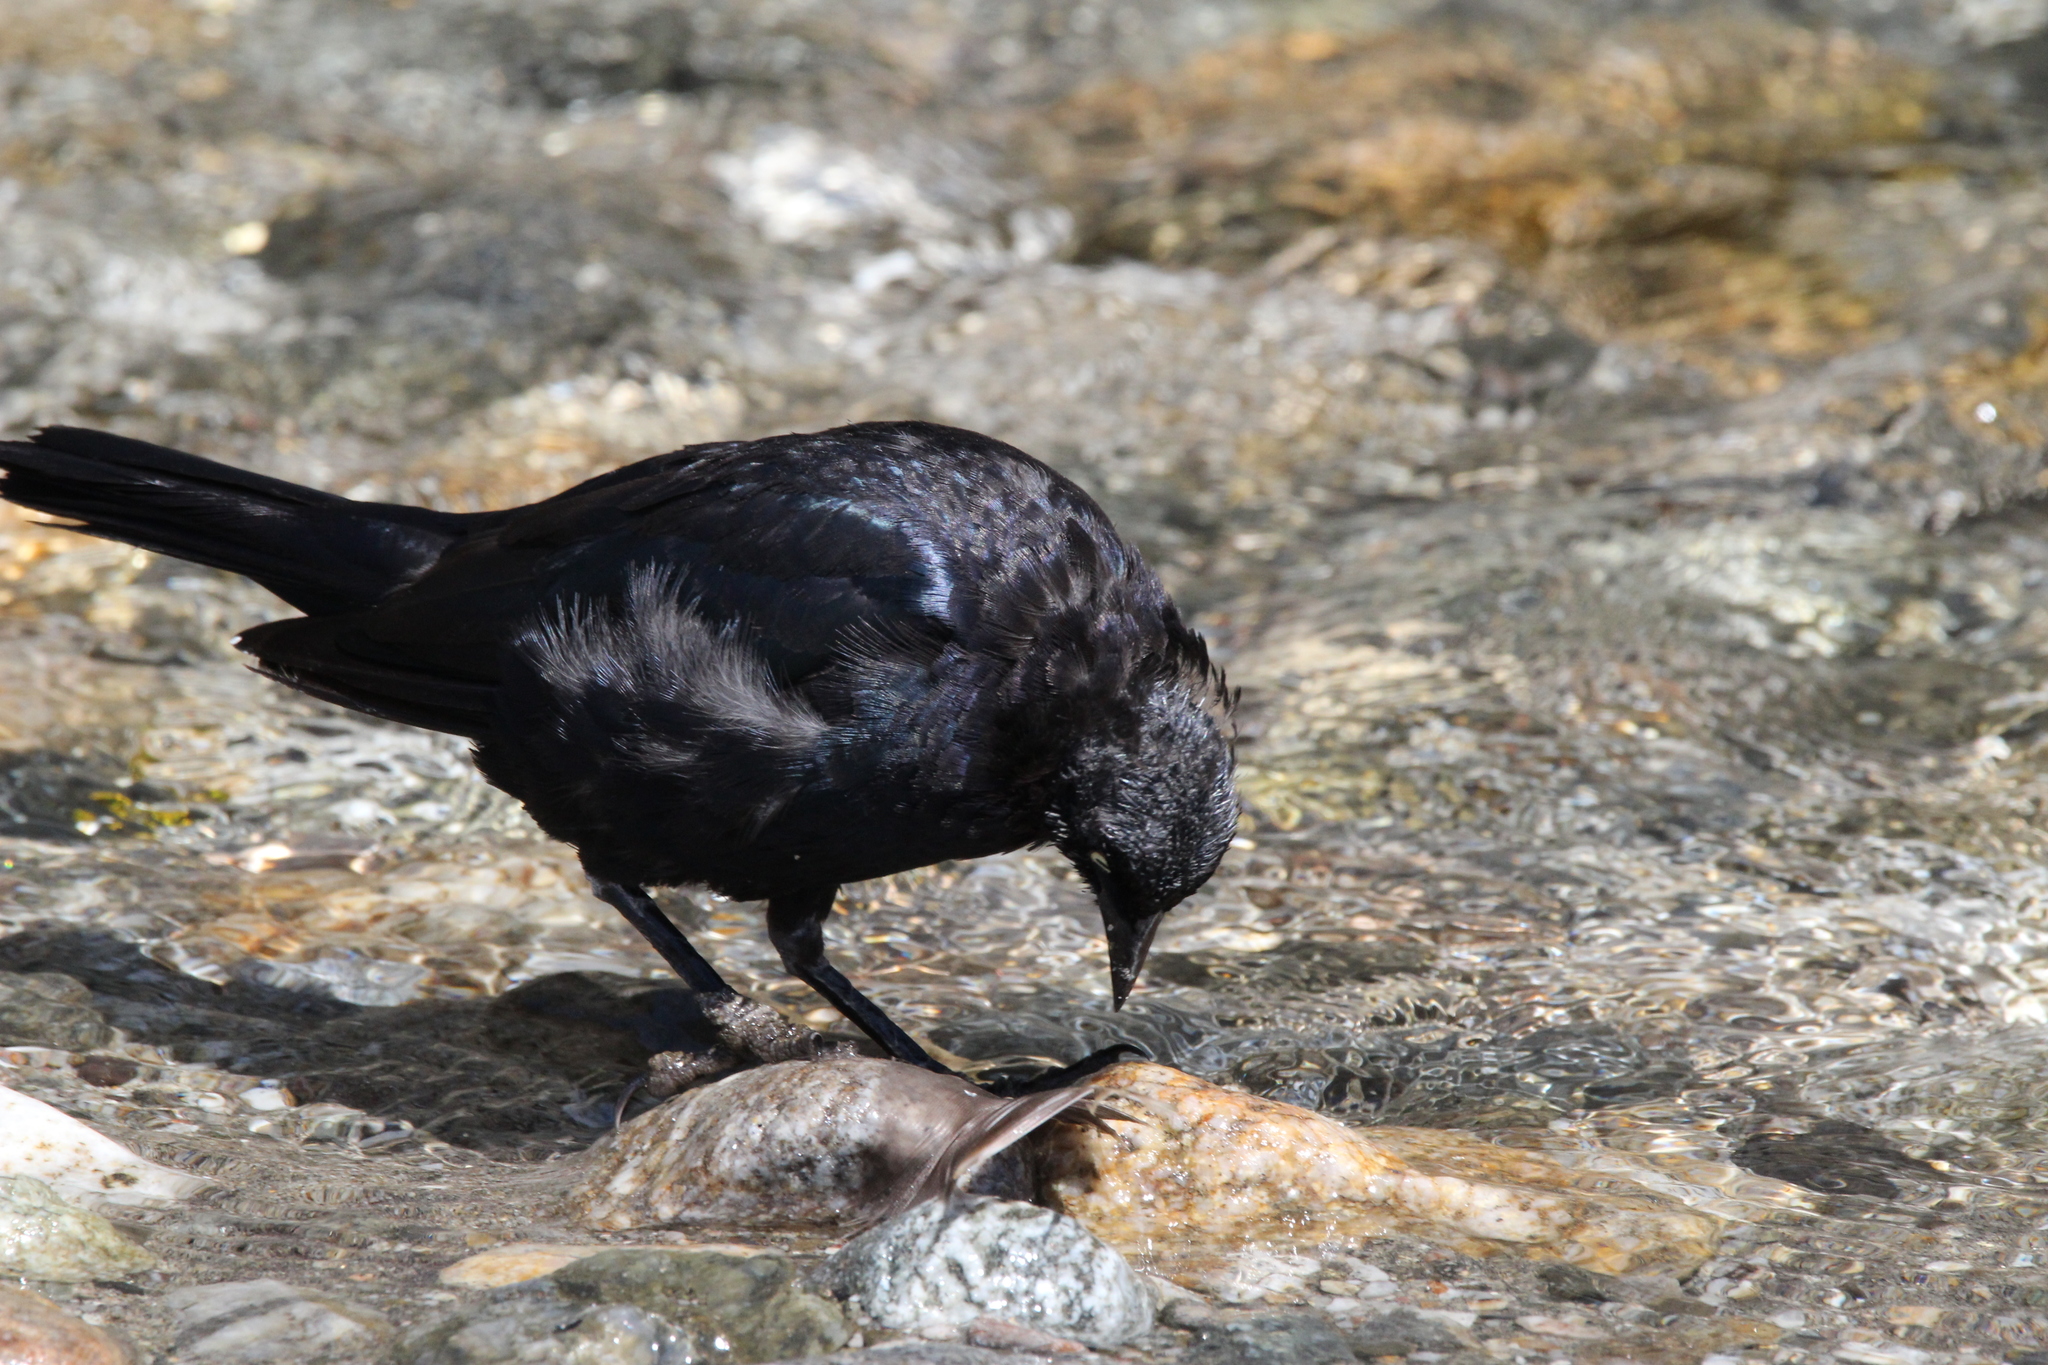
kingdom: Animalia
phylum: Chordata
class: Aves
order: Passeriformes
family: Icteridae
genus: Euphagus
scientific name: Euphagus cyanocephalus
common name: Brewer's blackbird
